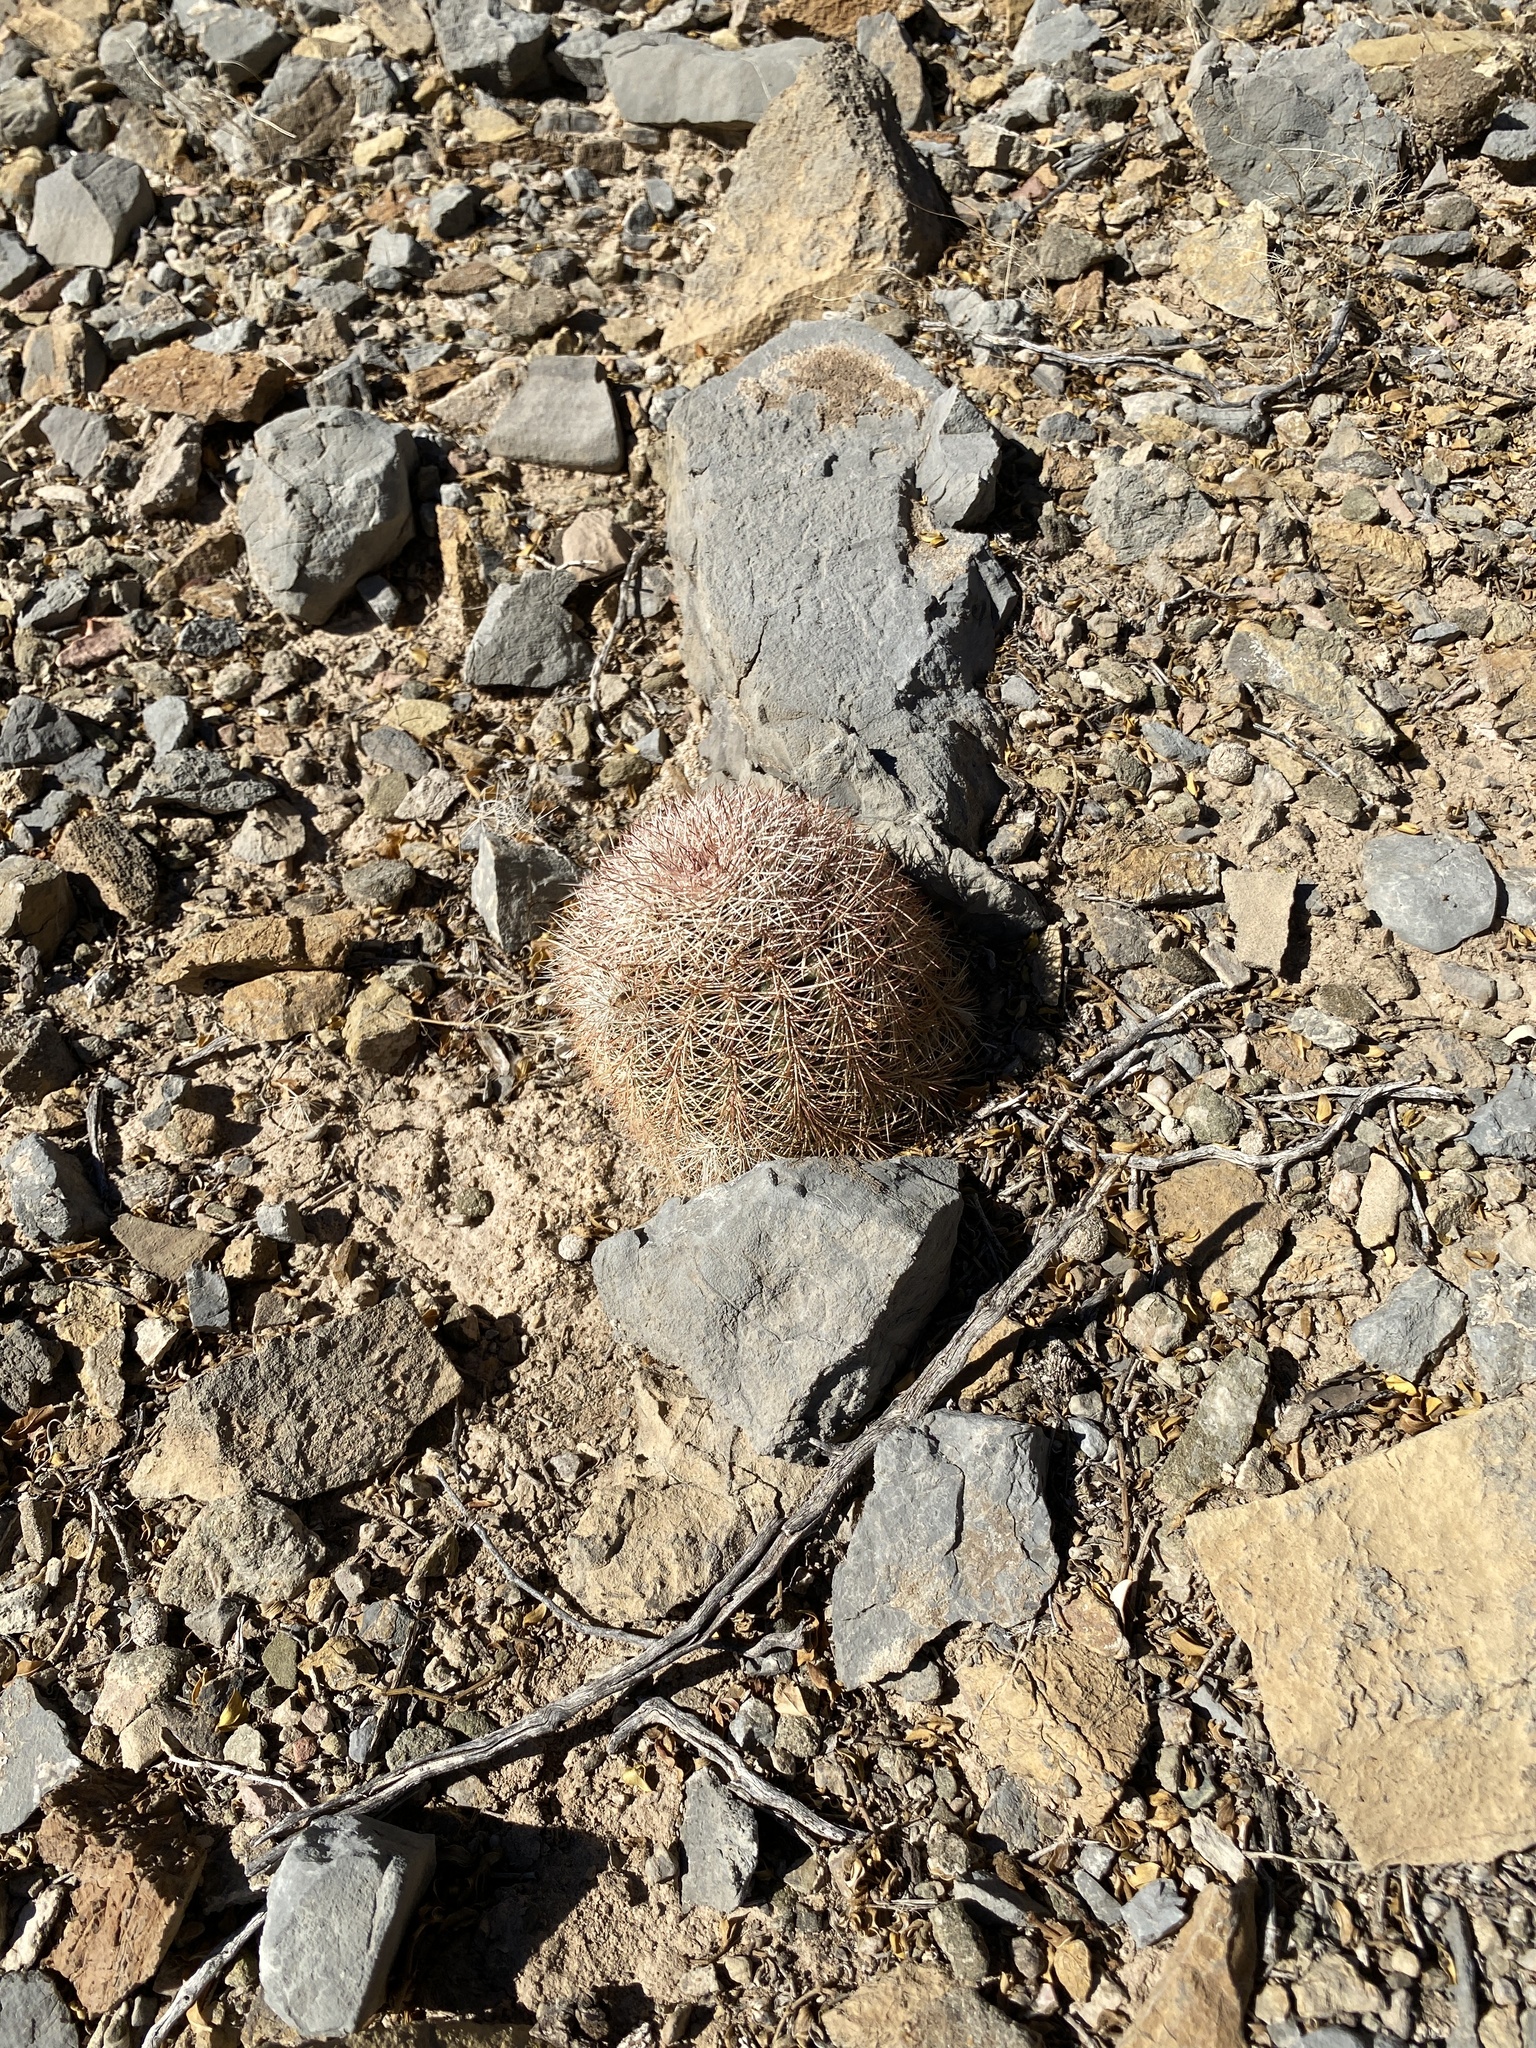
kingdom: Plantae
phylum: Tracheophyta
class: Magnoliopsida
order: Caryophyllales
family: Cactaceae
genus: Echinocereus
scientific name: Echinocereus dasyacanthus
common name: Spiny hedgehog cactus
